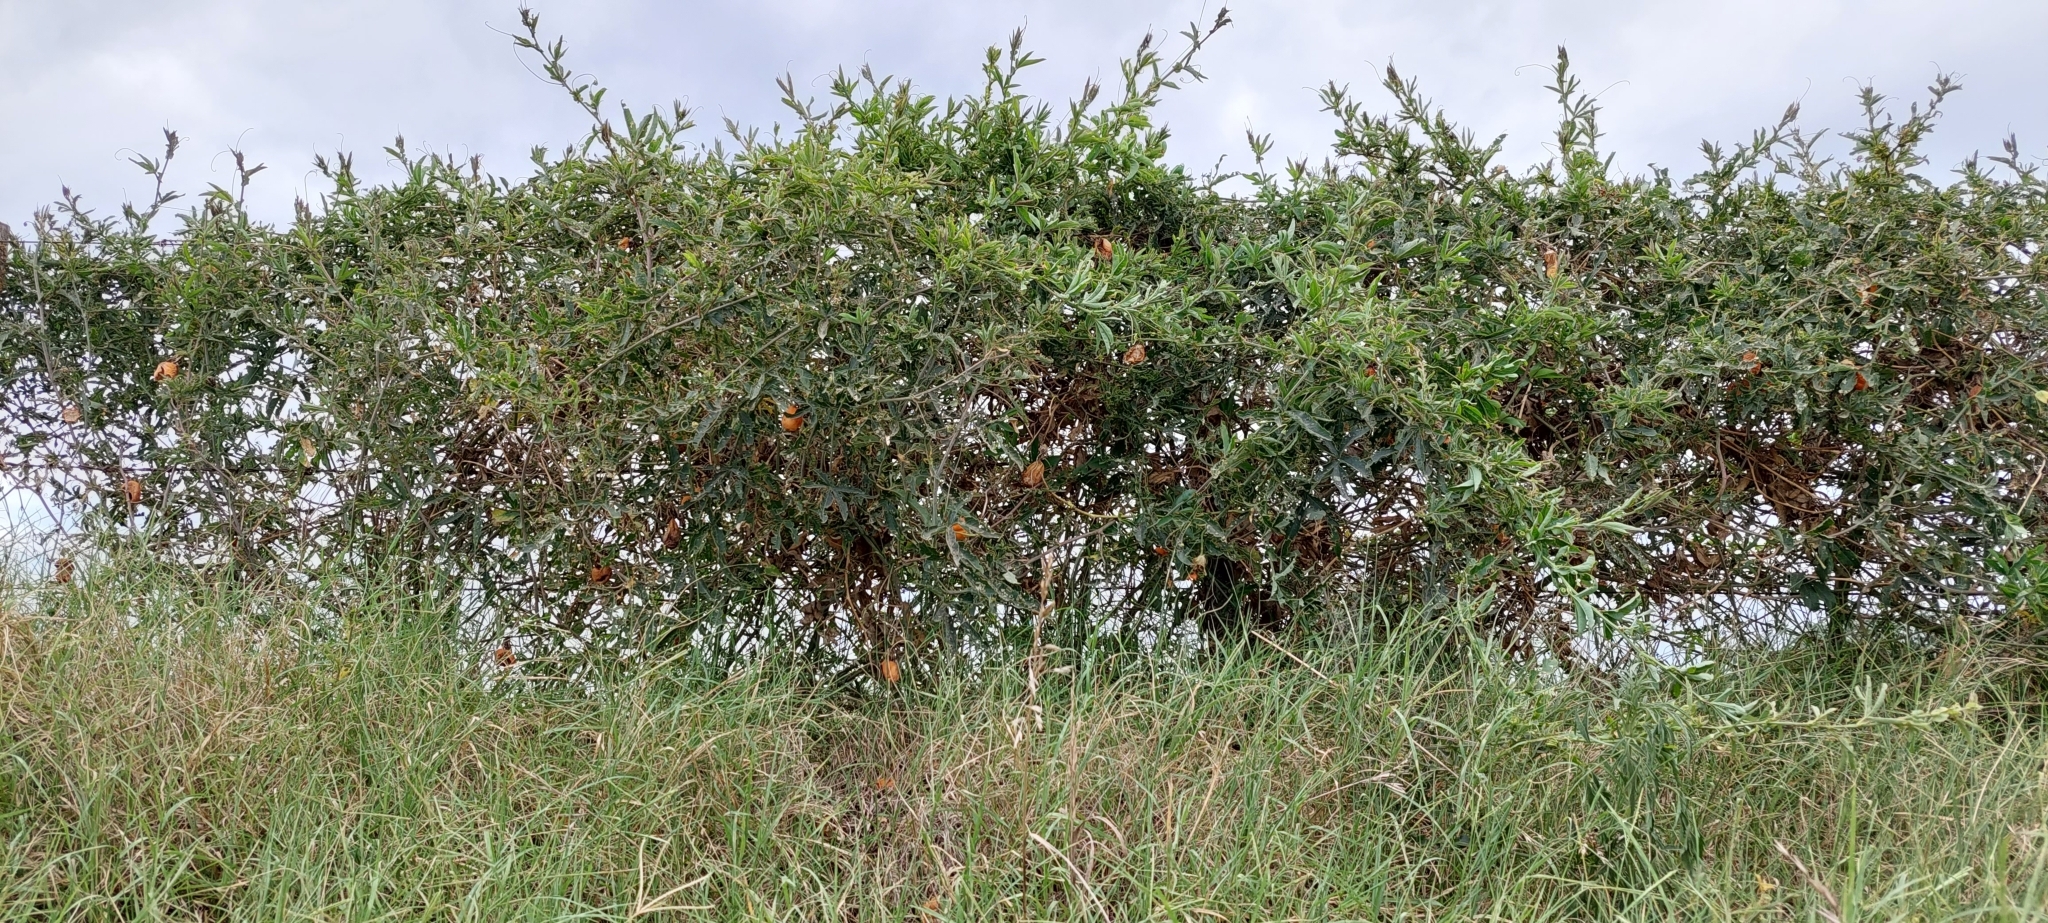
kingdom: Plantae
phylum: Tracheophyta
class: Magnoliopsida
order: Malpighiales
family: Passifloraceae
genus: Passiflora
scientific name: Passiflora caerulea
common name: Blue passionflower
